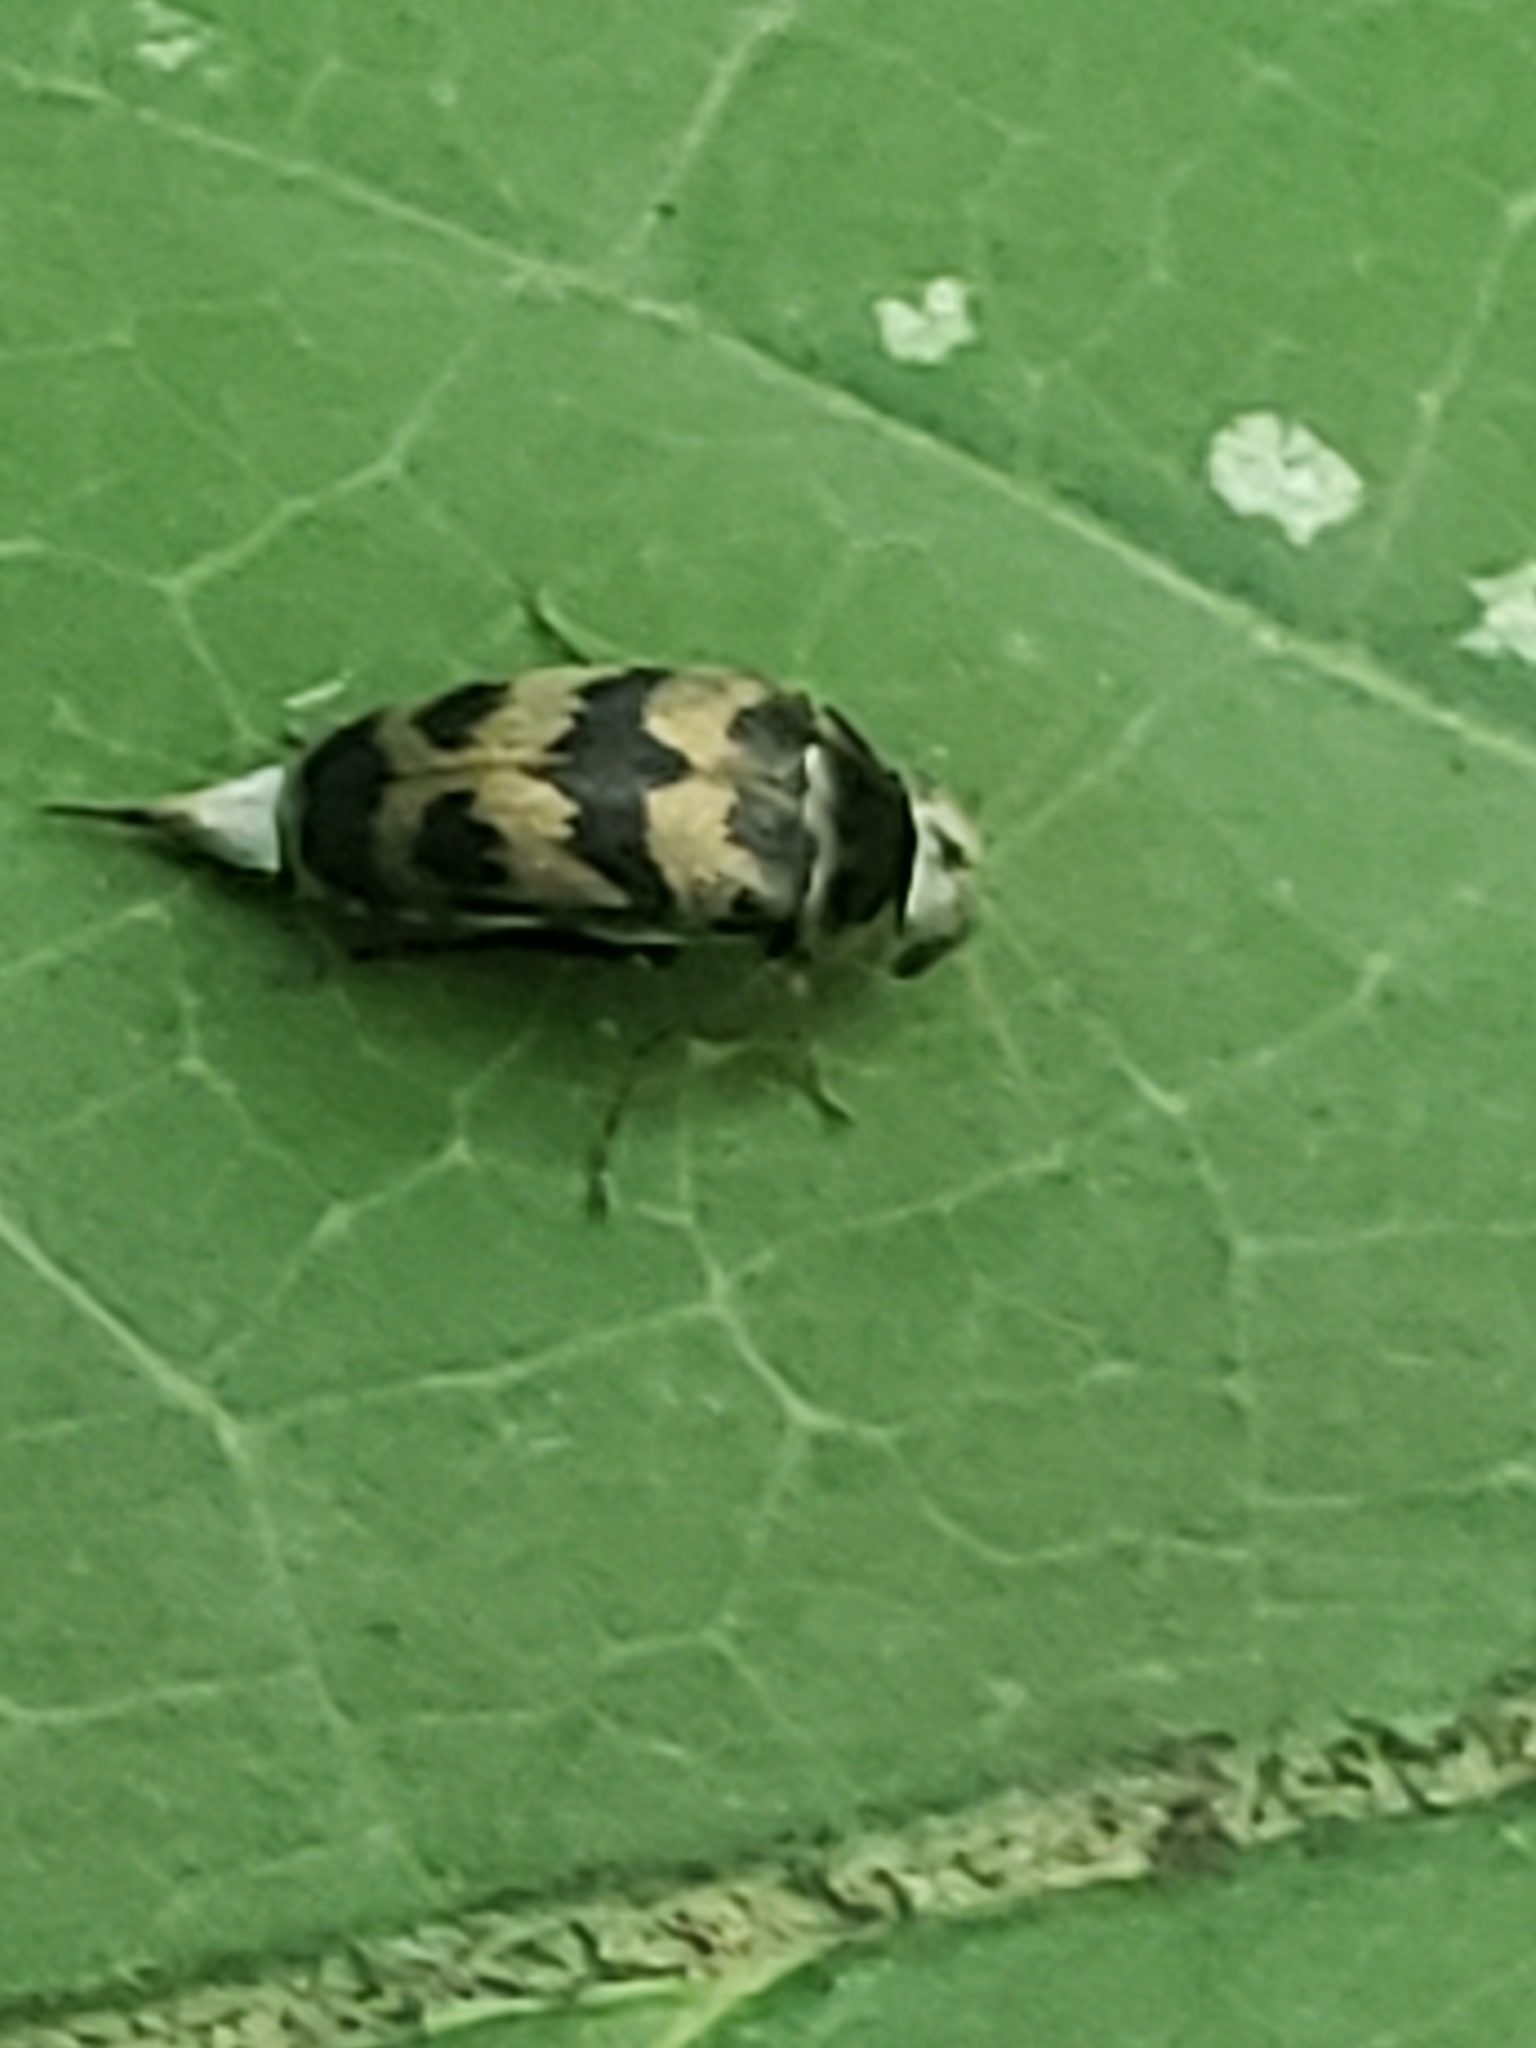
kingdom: Animalia
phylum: Arthropoda
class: Insecta
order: Coleoptera
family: Mordellidae
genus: Paramordellaria
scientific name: Paramordellaria triloba
